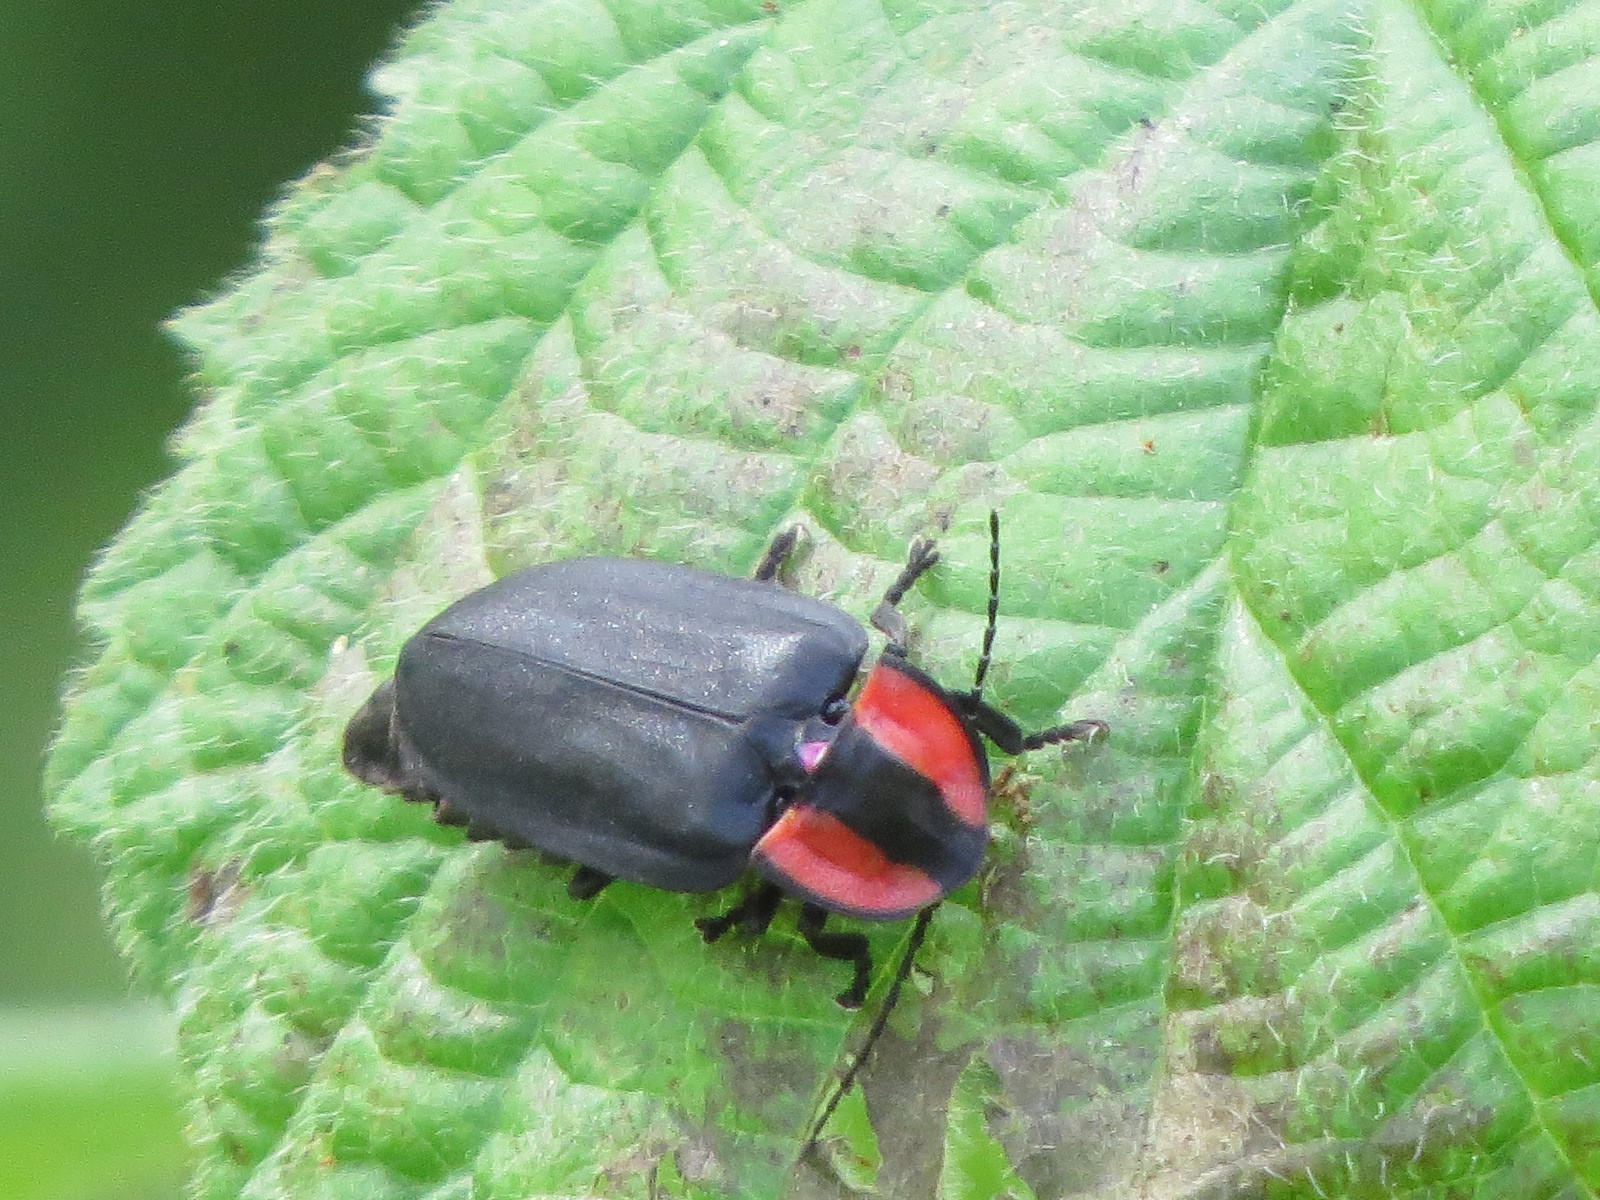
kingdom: Animalia
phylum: Arthropoda
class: Insecta
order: Coleoptera
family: Lampyridae
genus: Ellychnia
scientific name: Ellychnia megista
